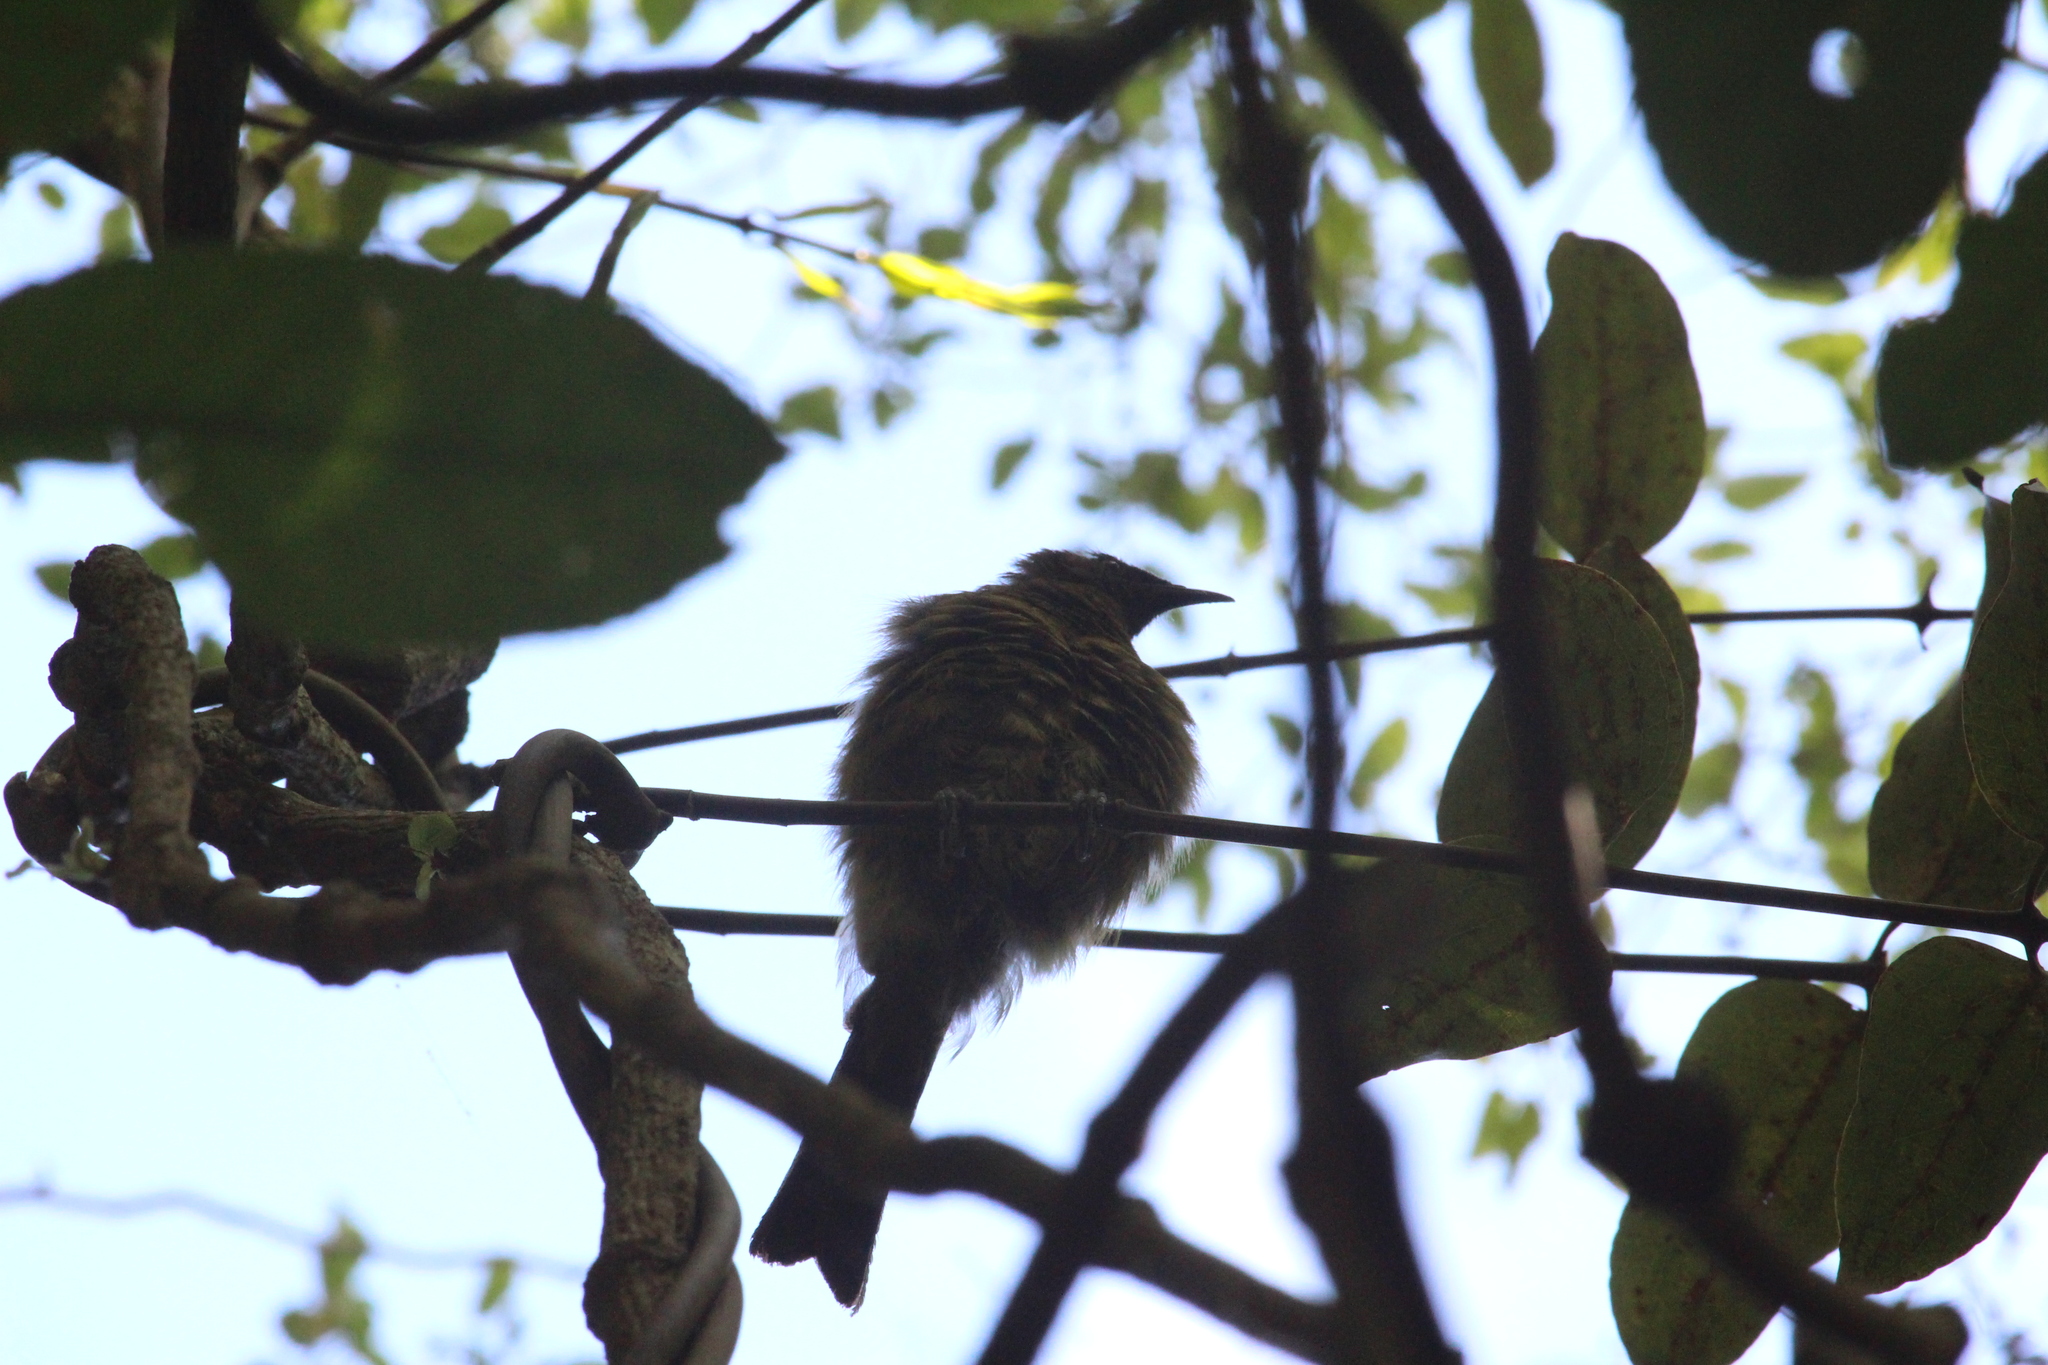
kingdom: Animalia
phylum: Chordata
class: Aves
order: Passeriformes
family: Meliphagidae
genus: Anthornis
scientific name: Anthornis melanura
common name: New zealand bellbird
